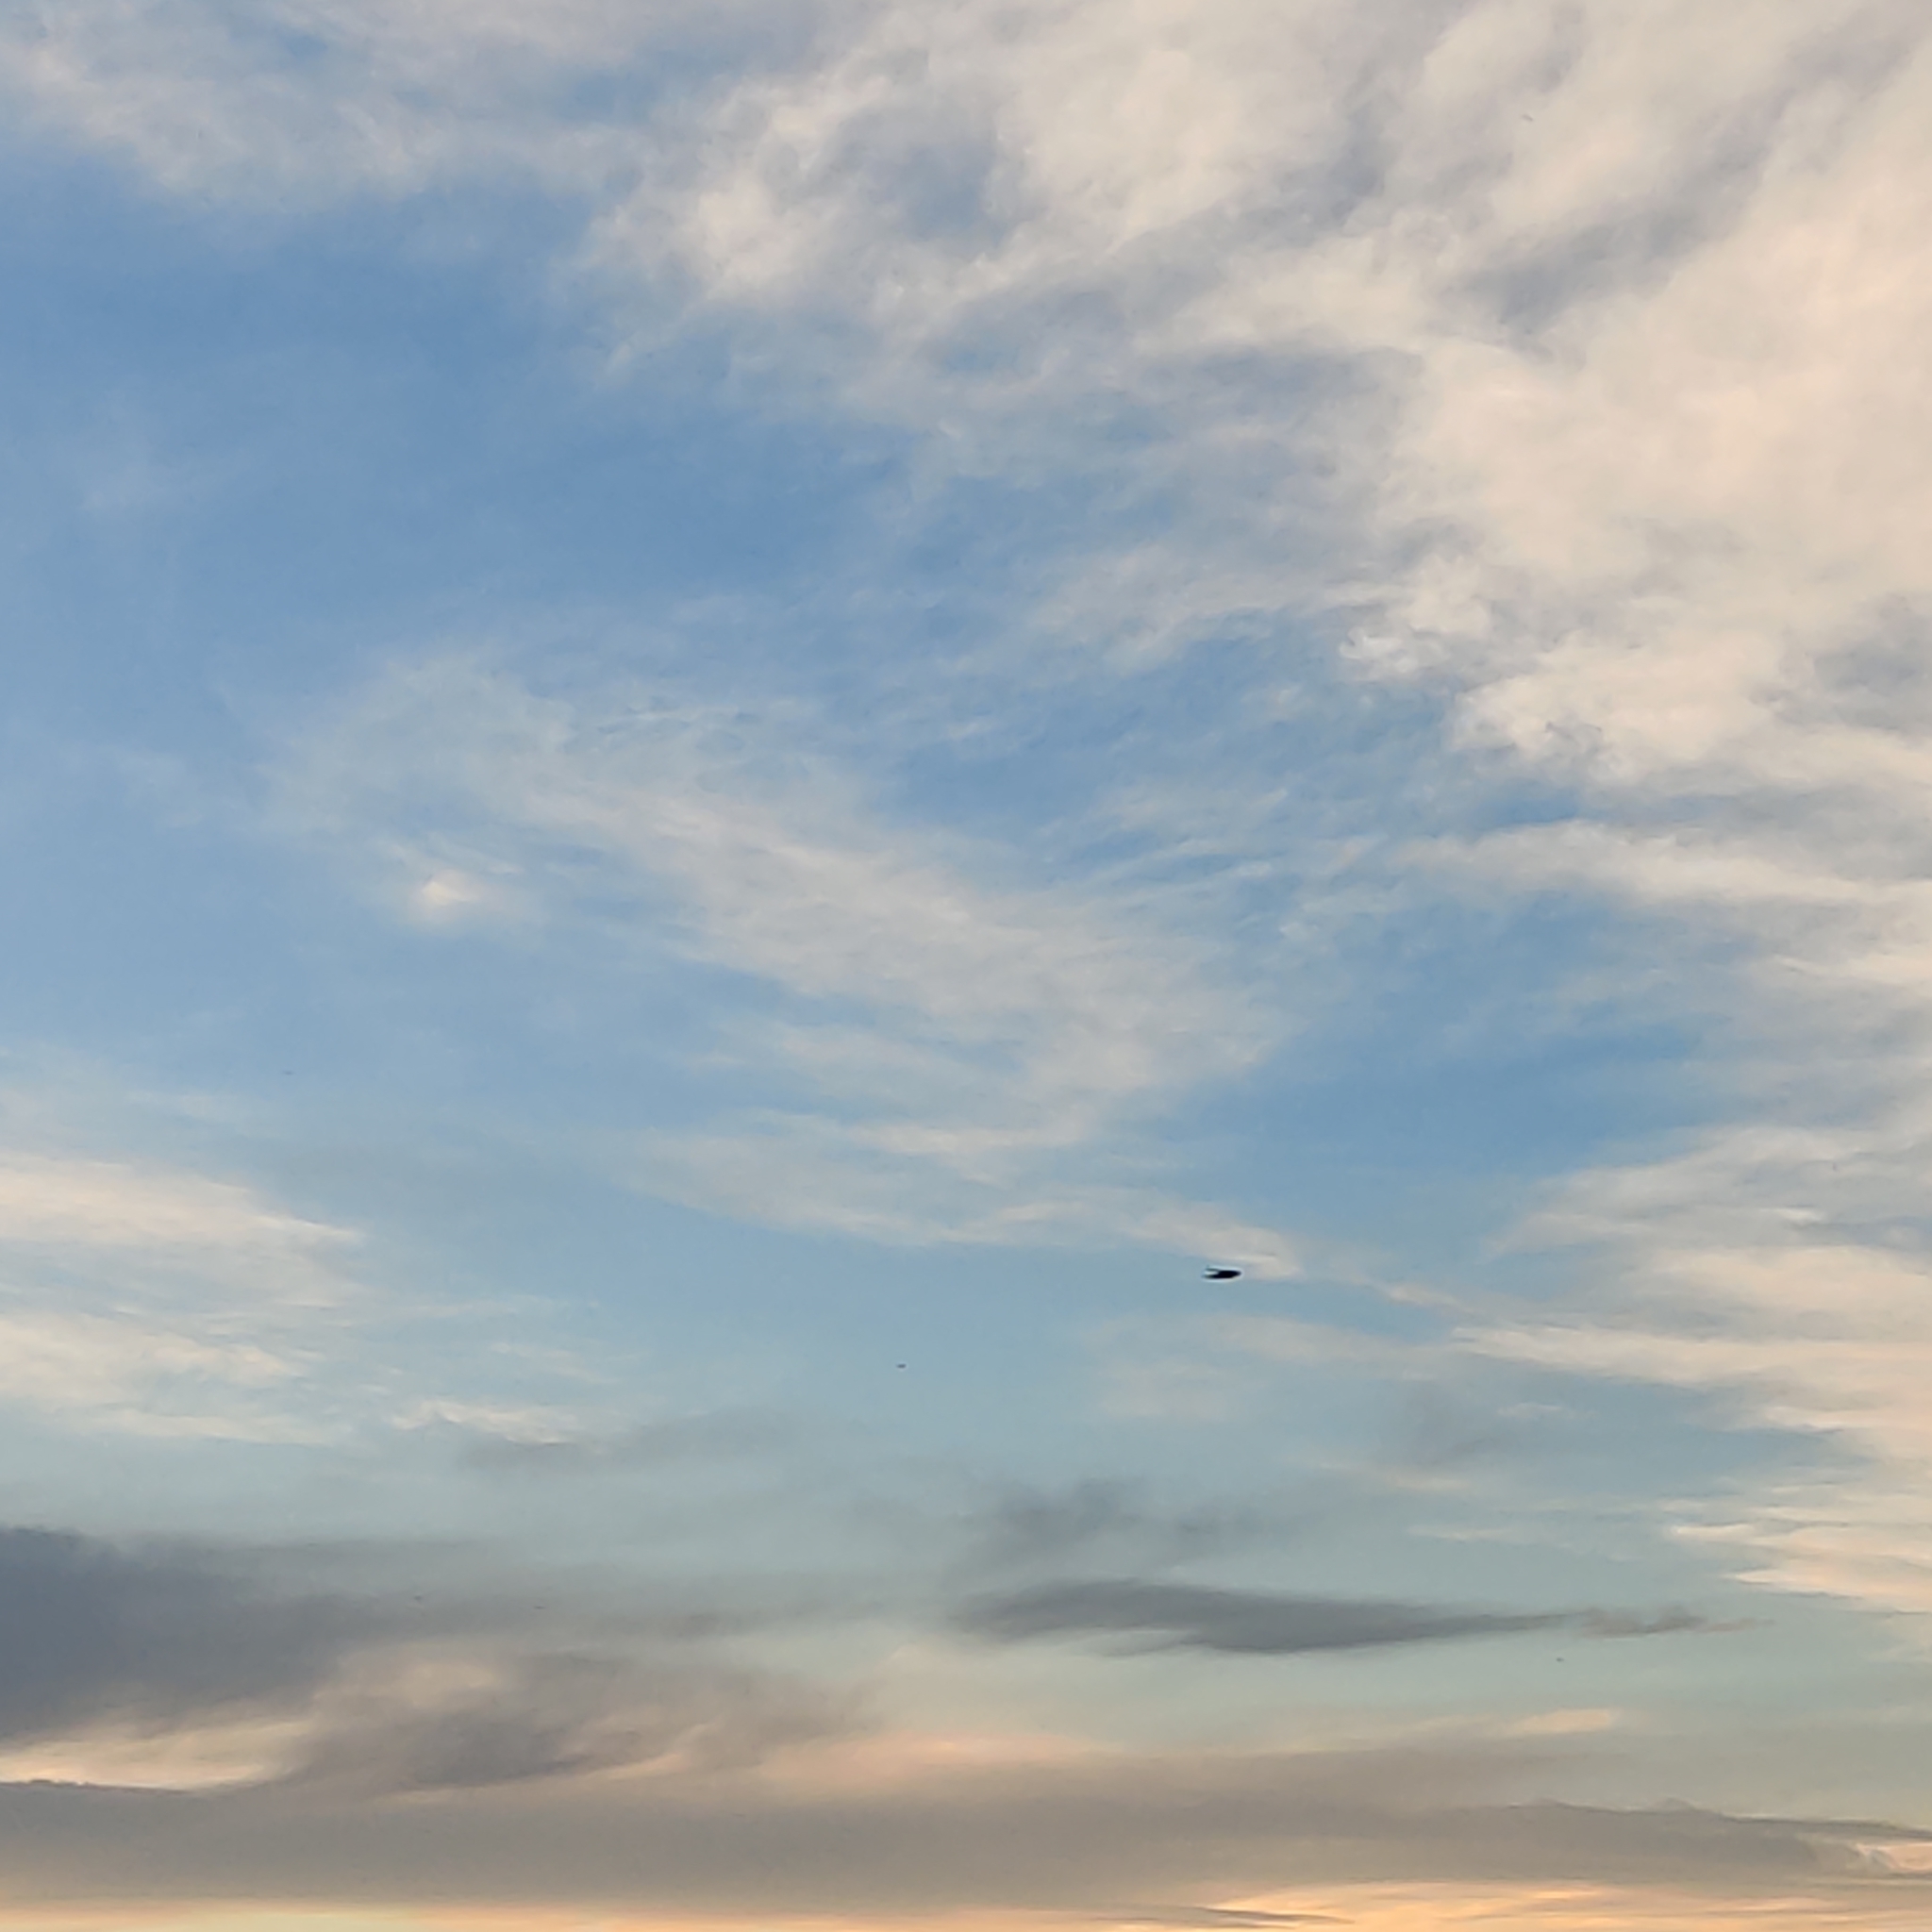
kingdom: Animalia
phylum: Chordata
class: Aves
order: Passeriformes
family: Hirundinidae
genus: Hirundo
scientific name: Hirundo neoxena
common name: Welcome swallow
